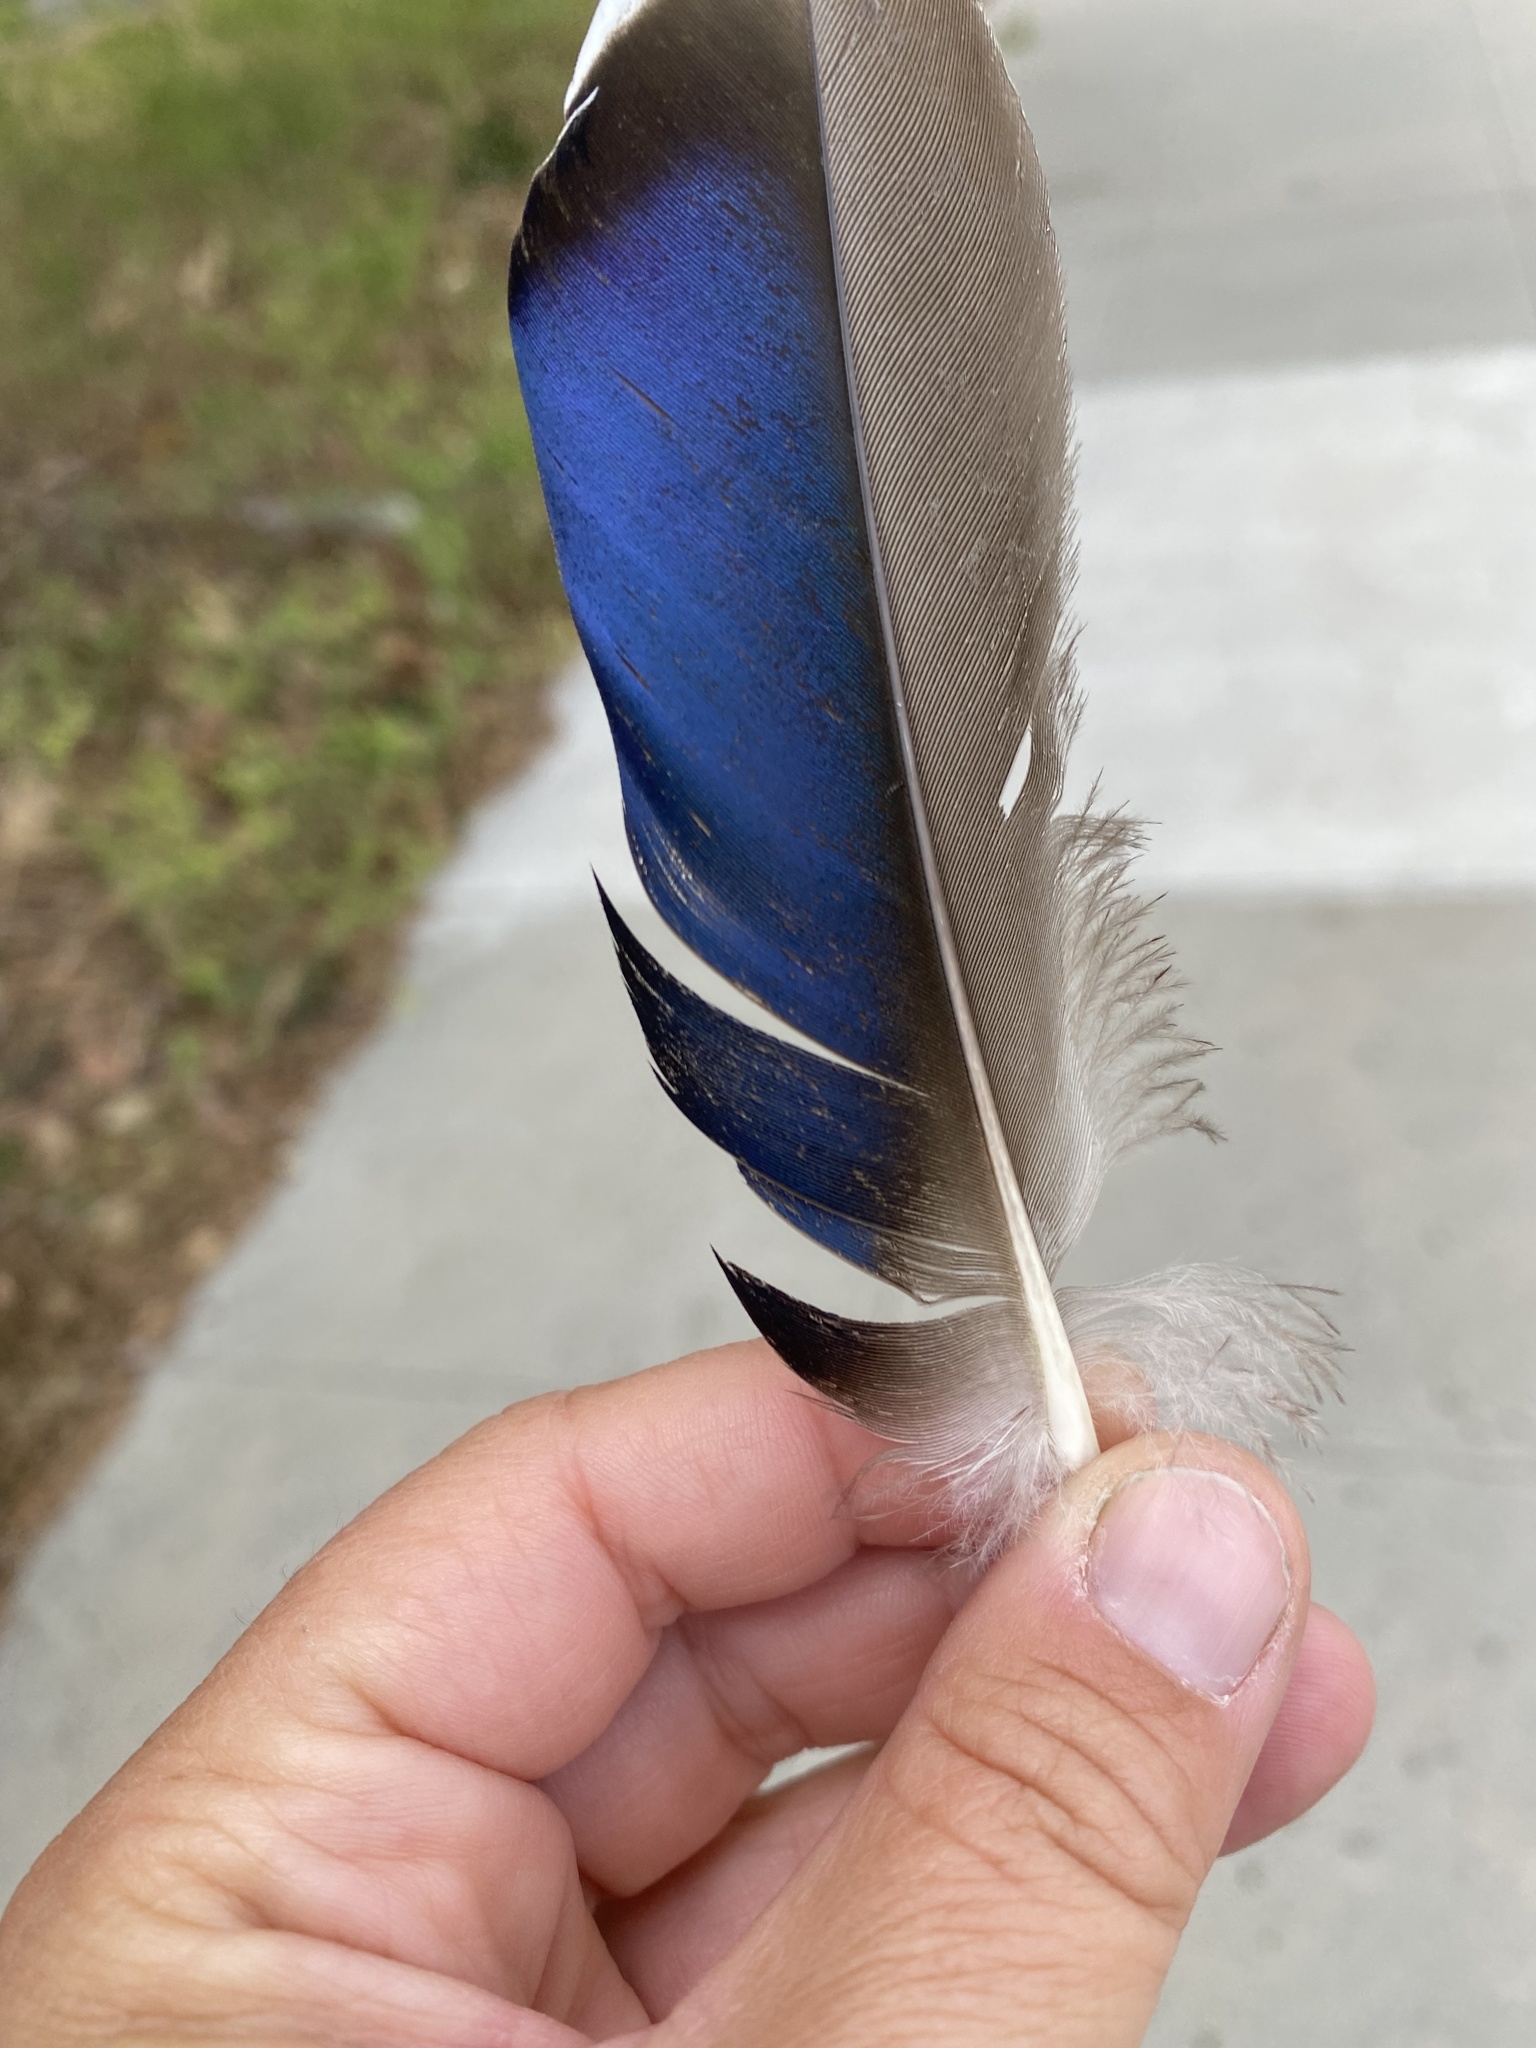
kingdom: Animalia
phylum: Chordata
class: Aves
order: Anseriformes
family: Anatidae
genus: Anas
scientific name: Anas platyrhynchos
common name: Mallard
